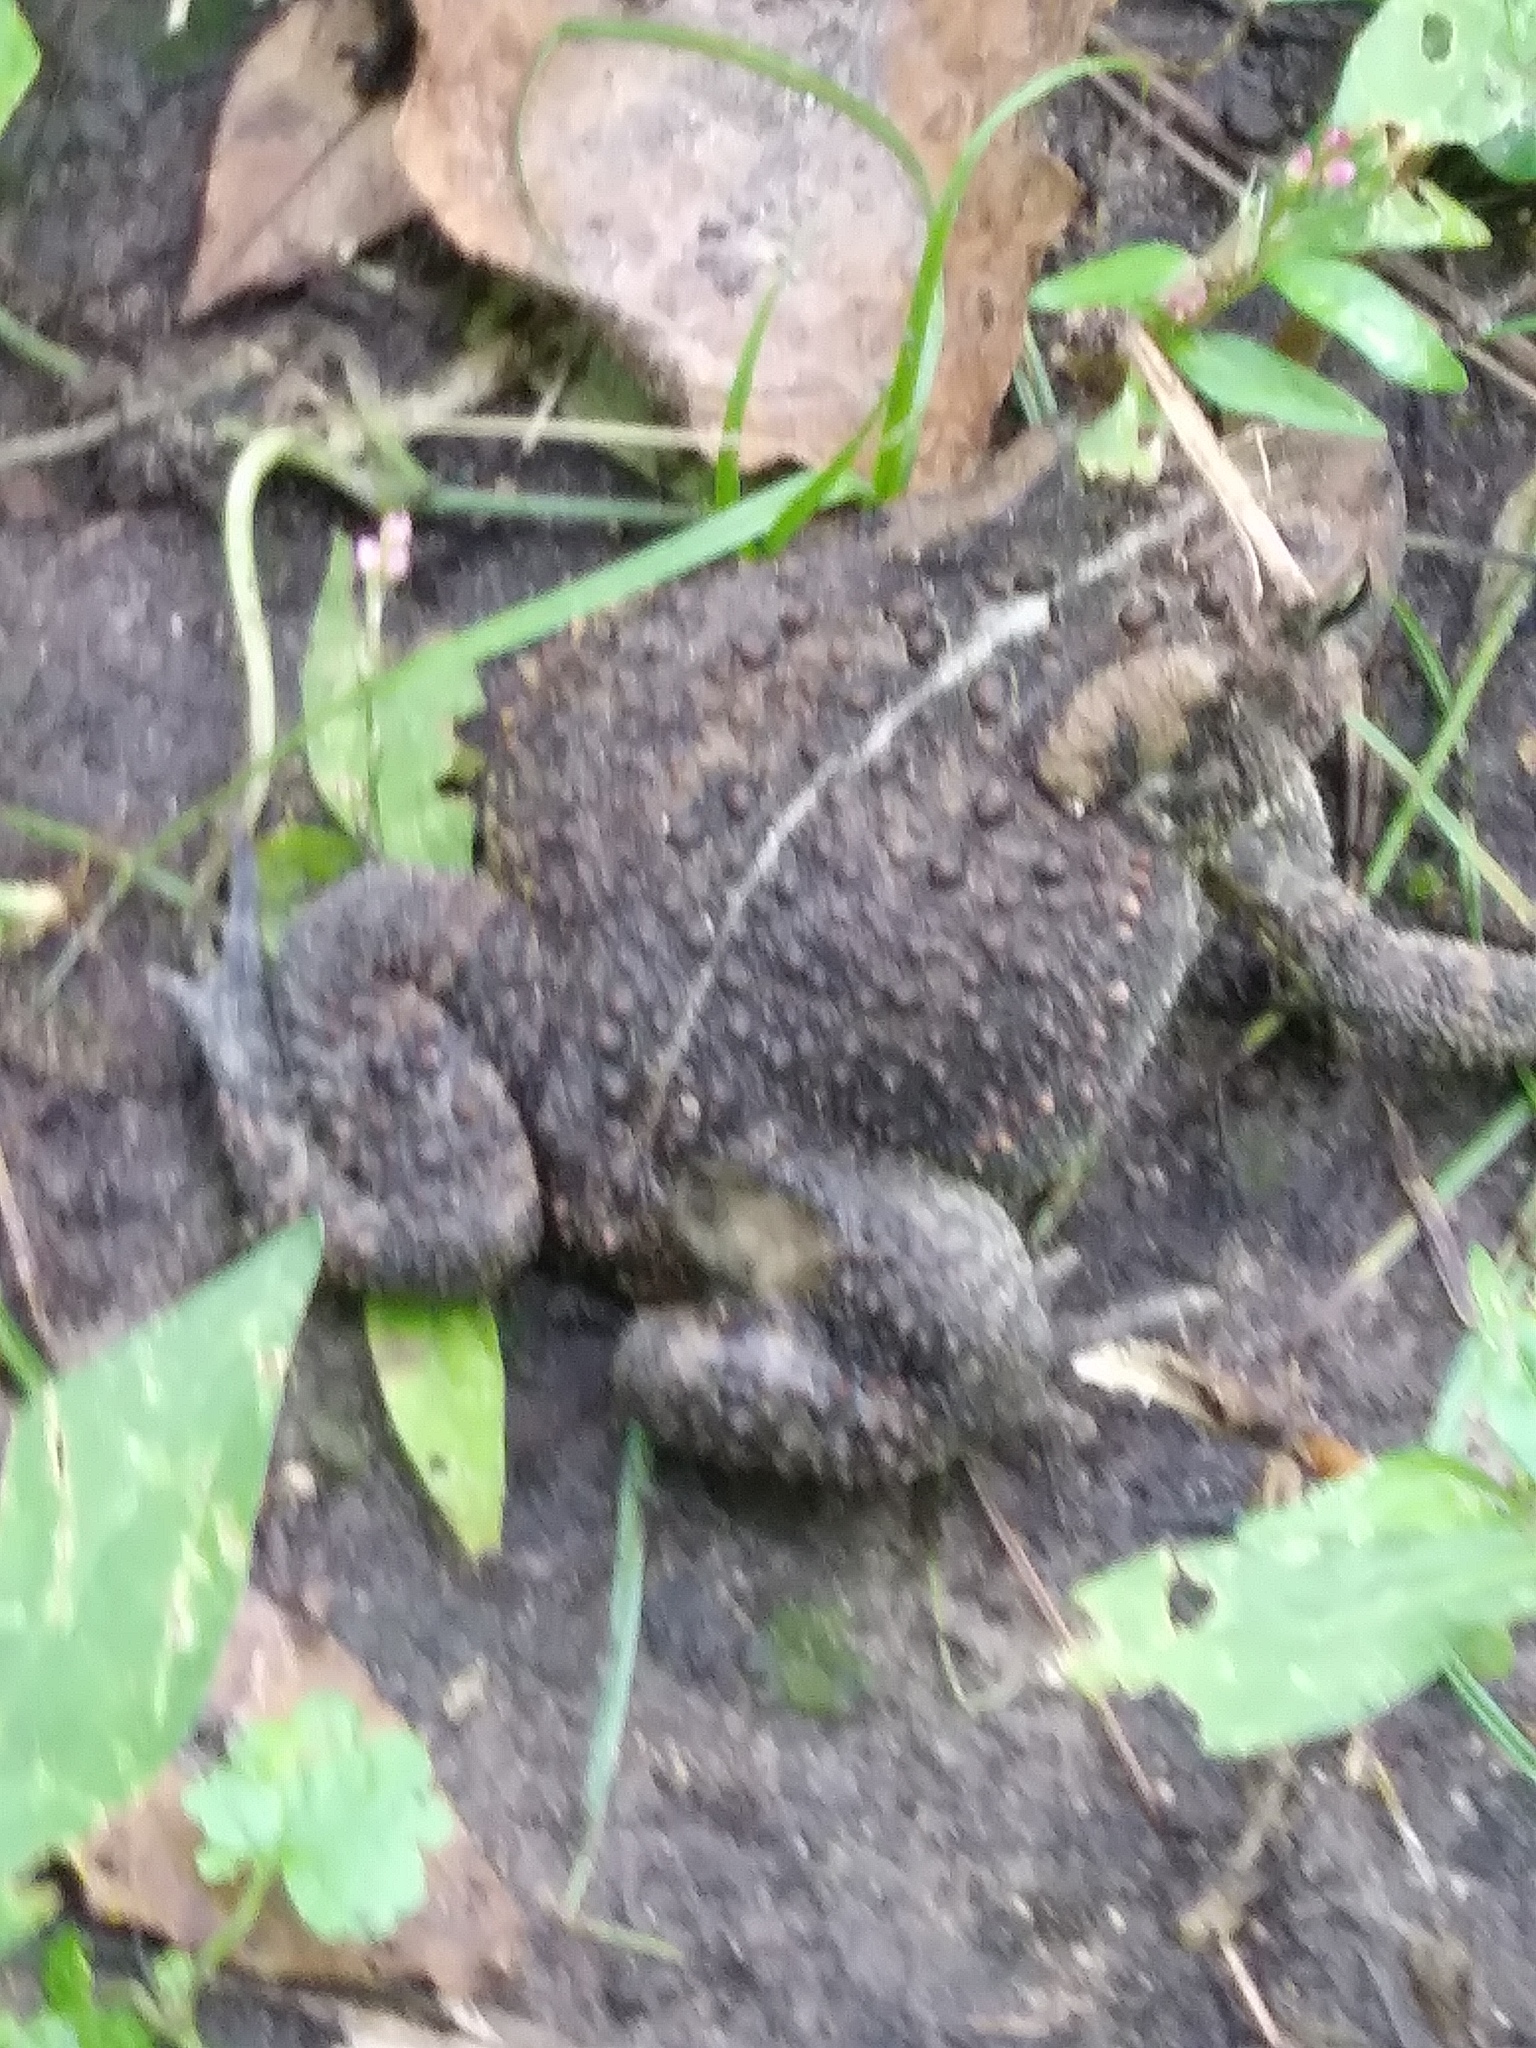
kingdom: Animalia
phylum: Chordata
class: Amphibia
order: Anura
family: Bufonidae
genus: Anaxyrus
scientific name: Anaxyrus americanus
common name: American toad
